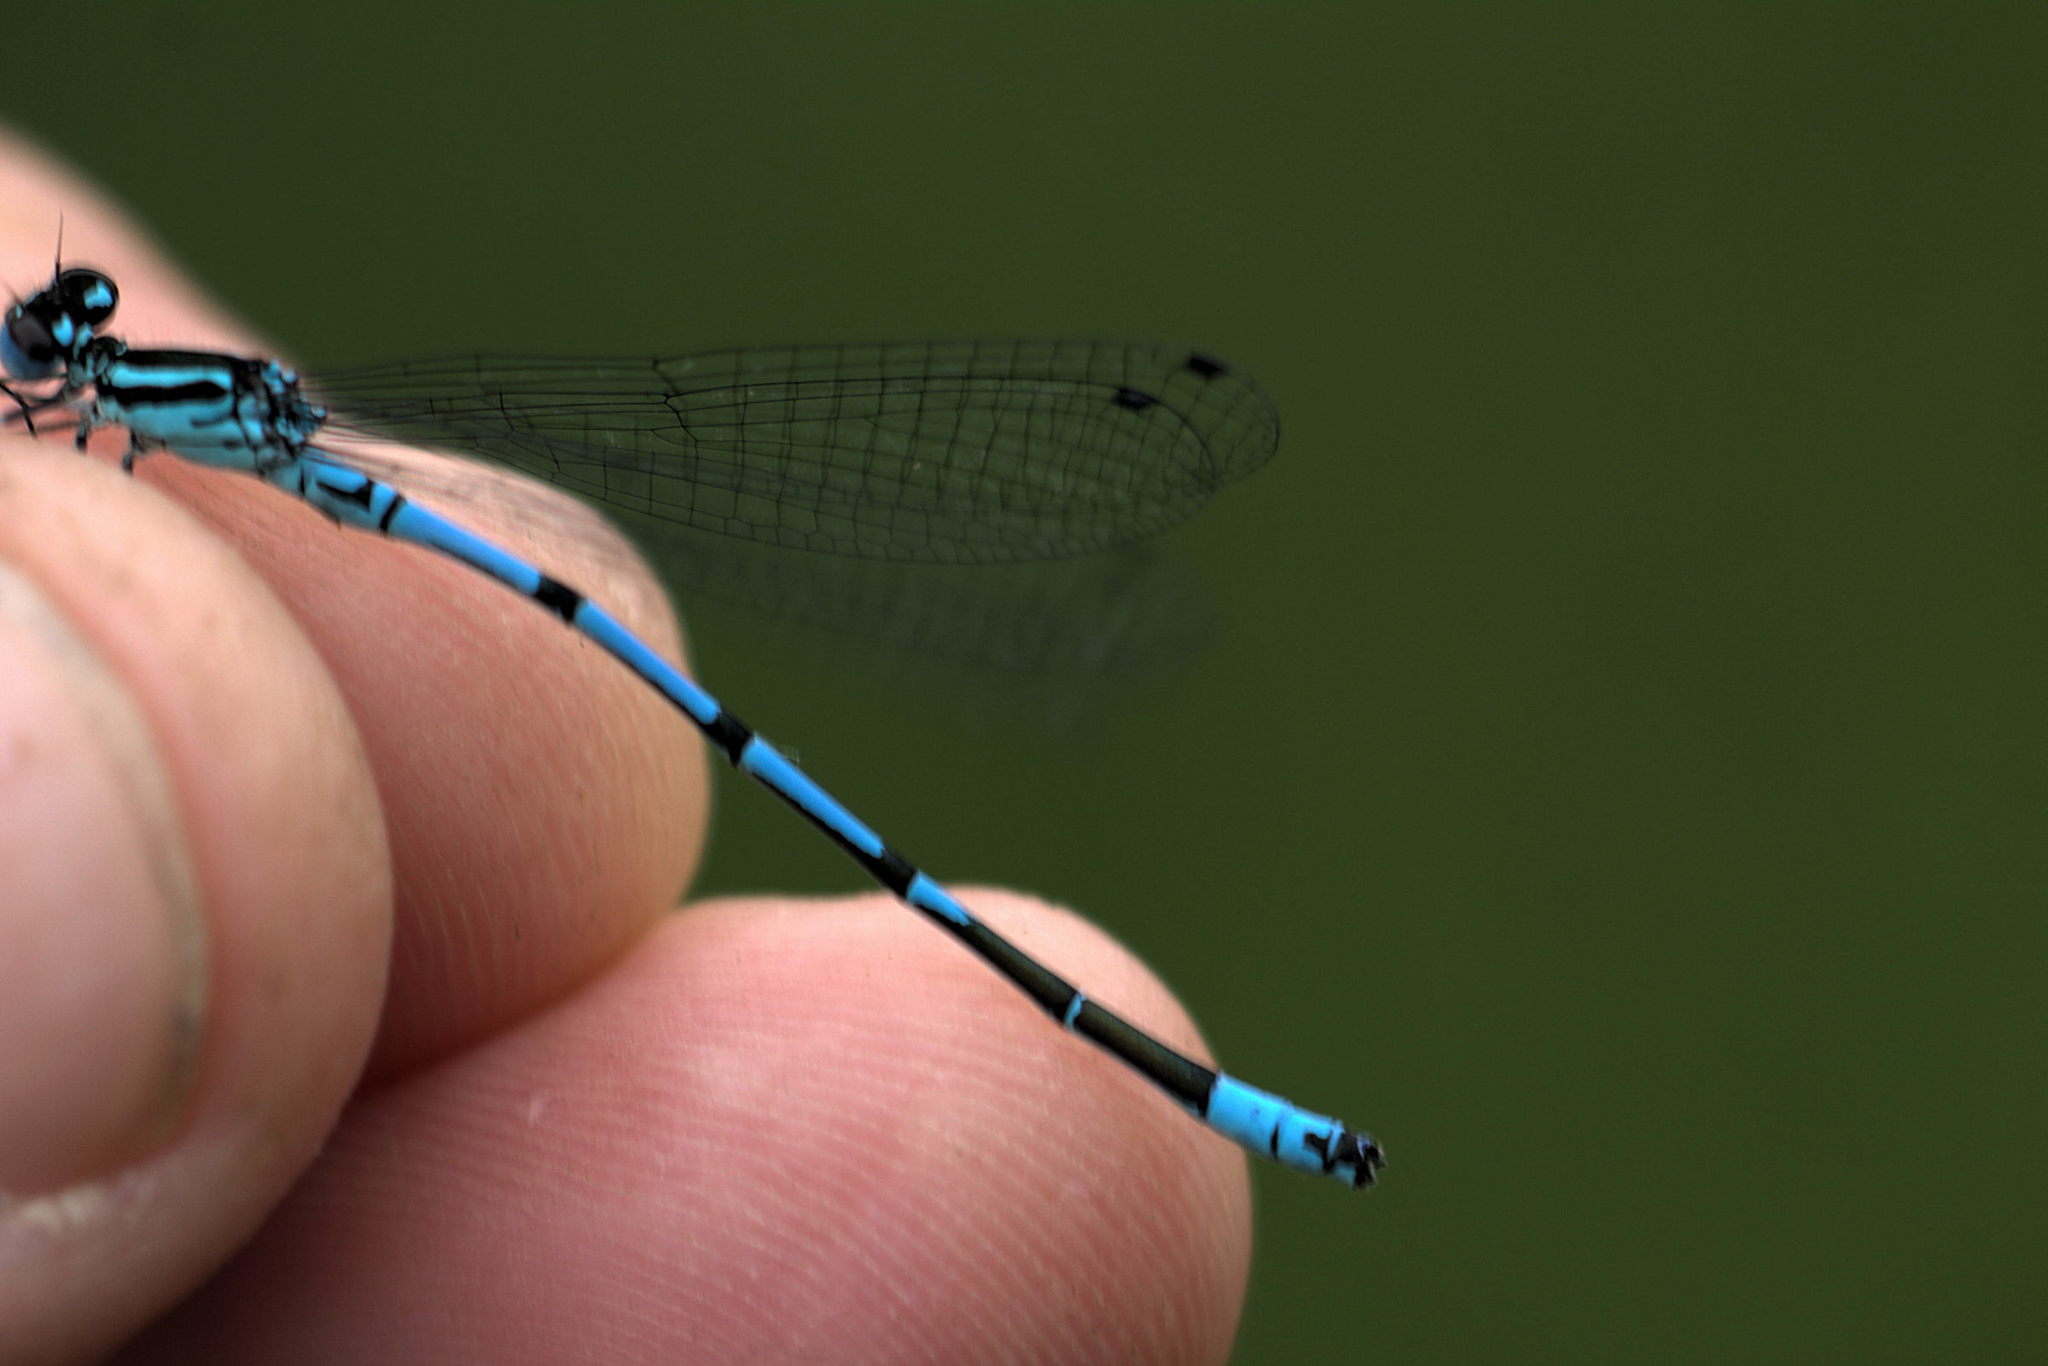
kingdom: Animalia
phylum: Arthropoda
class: Insecta
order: Odonata
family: Coenagrionidae
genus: Coenagrion
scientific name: Coenagrion puella
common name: Azure damselfly
